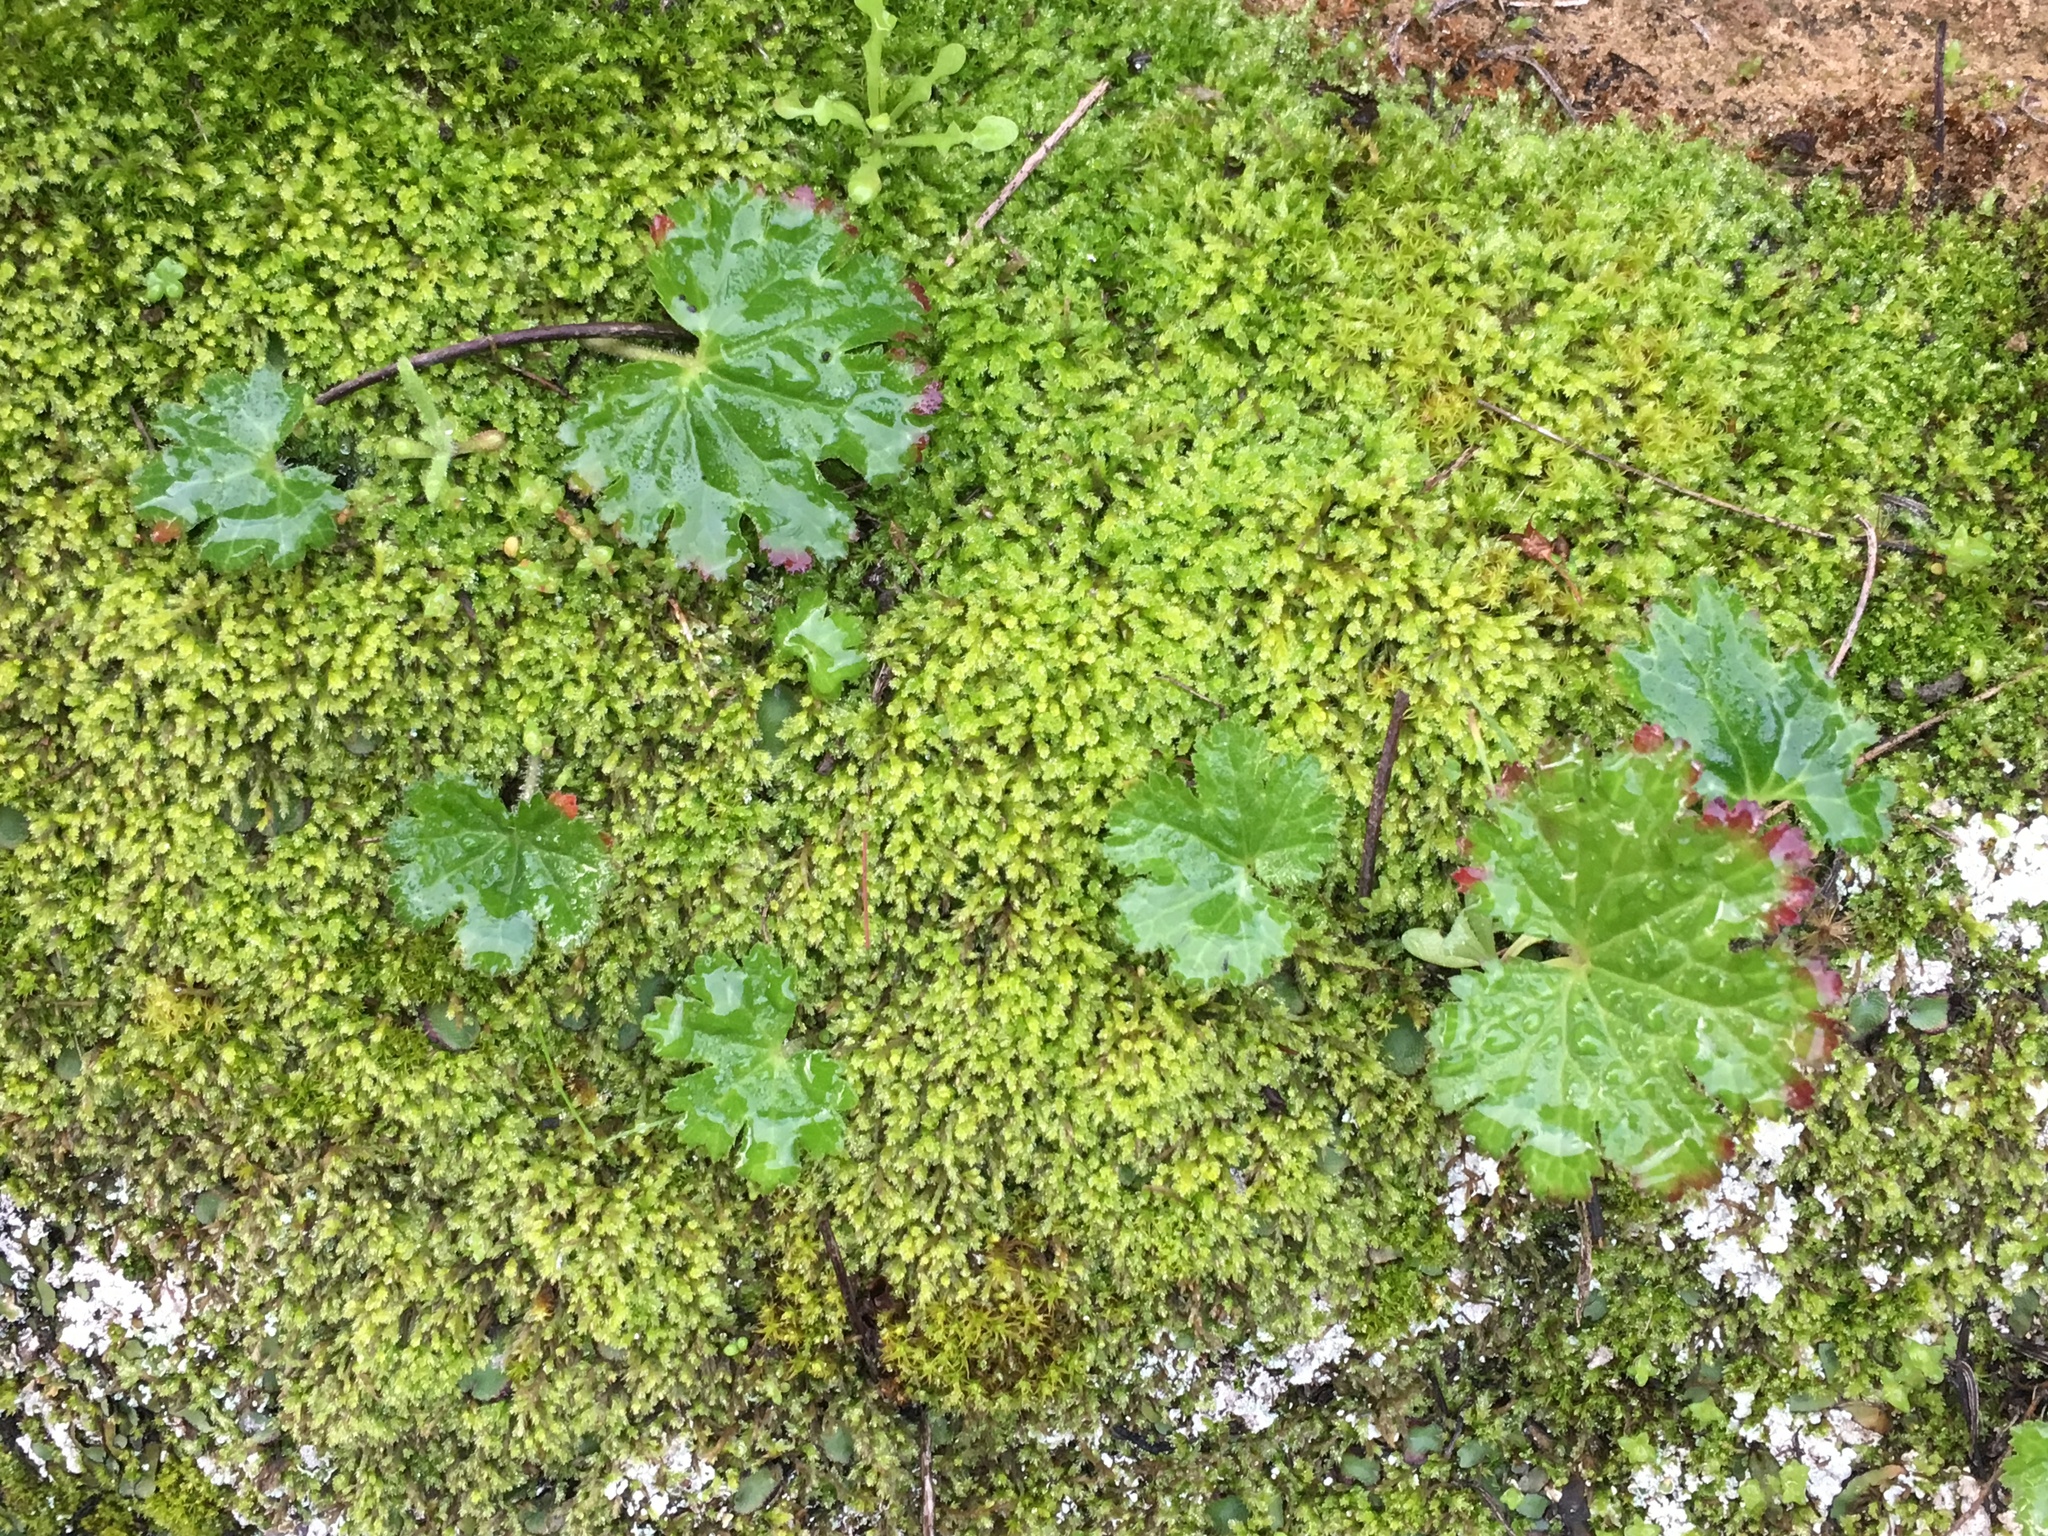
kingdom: Plantae
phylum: Tracheophyta
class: Magnoliopsida
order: Saxifragales
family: Saxifragaceae
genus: Jepsonia
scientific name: Jepsonia malvifolia
